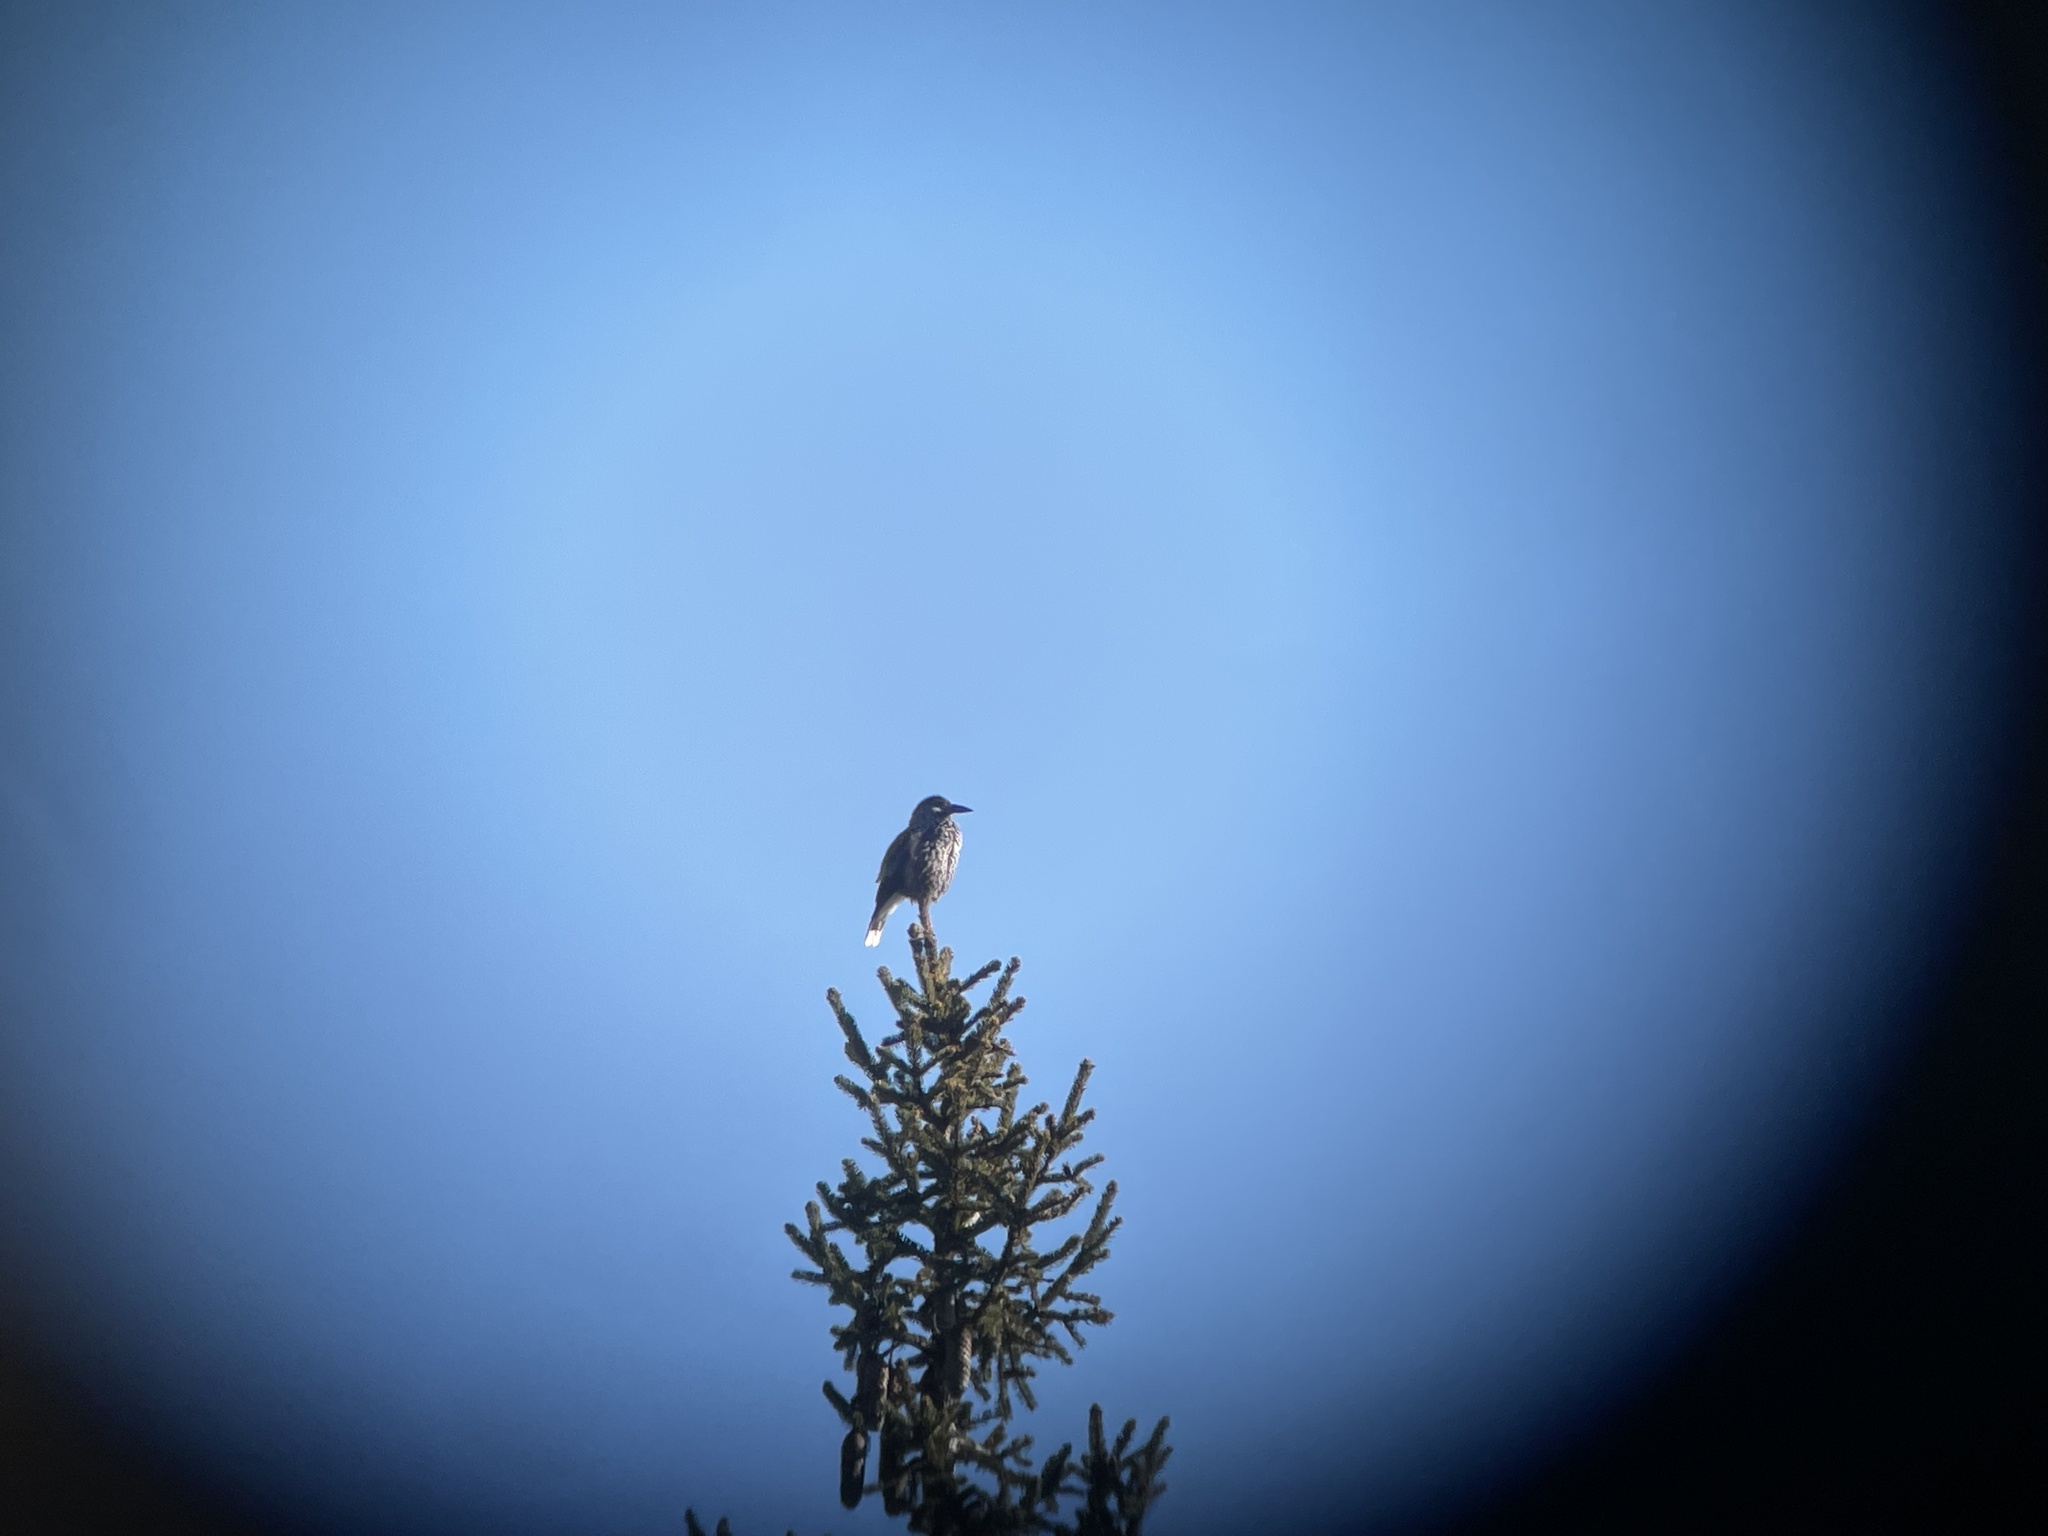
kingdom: Animalia
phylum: Chordata
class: Aves
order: Passeriformes
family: Corvidae
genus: Nucifraga
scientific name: Nucifraga caryocatactes
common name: Spotted nutcracker
